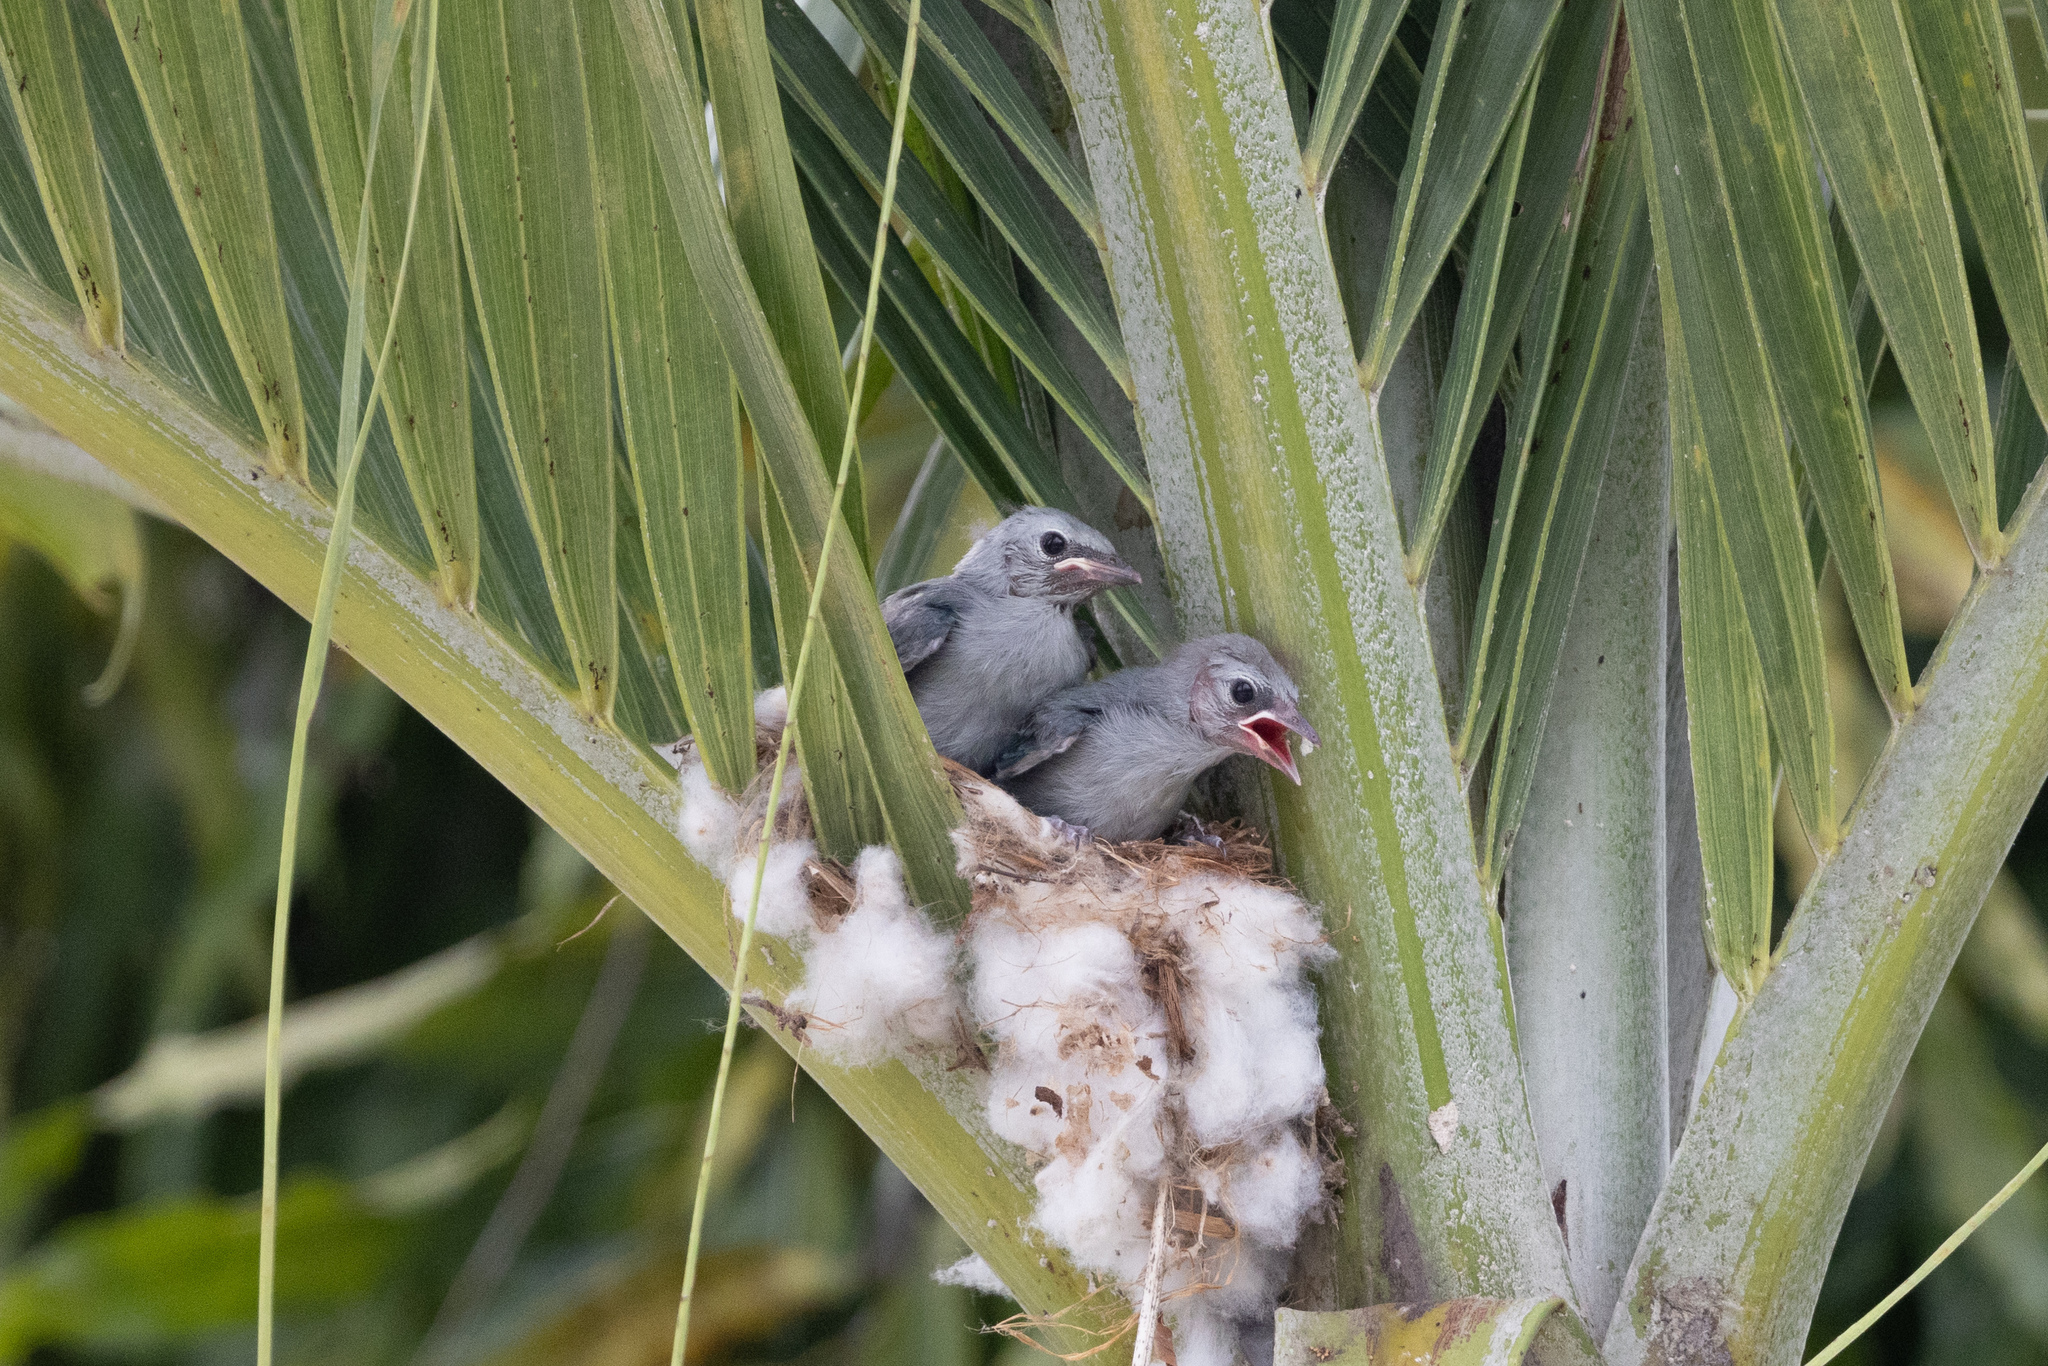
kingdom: Animalia
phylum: Chordata
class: Aves
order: Passeriformes
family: Thraupidae
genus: Thraupis
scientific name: Thraupis episcopus
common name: Blue-grey tanager
